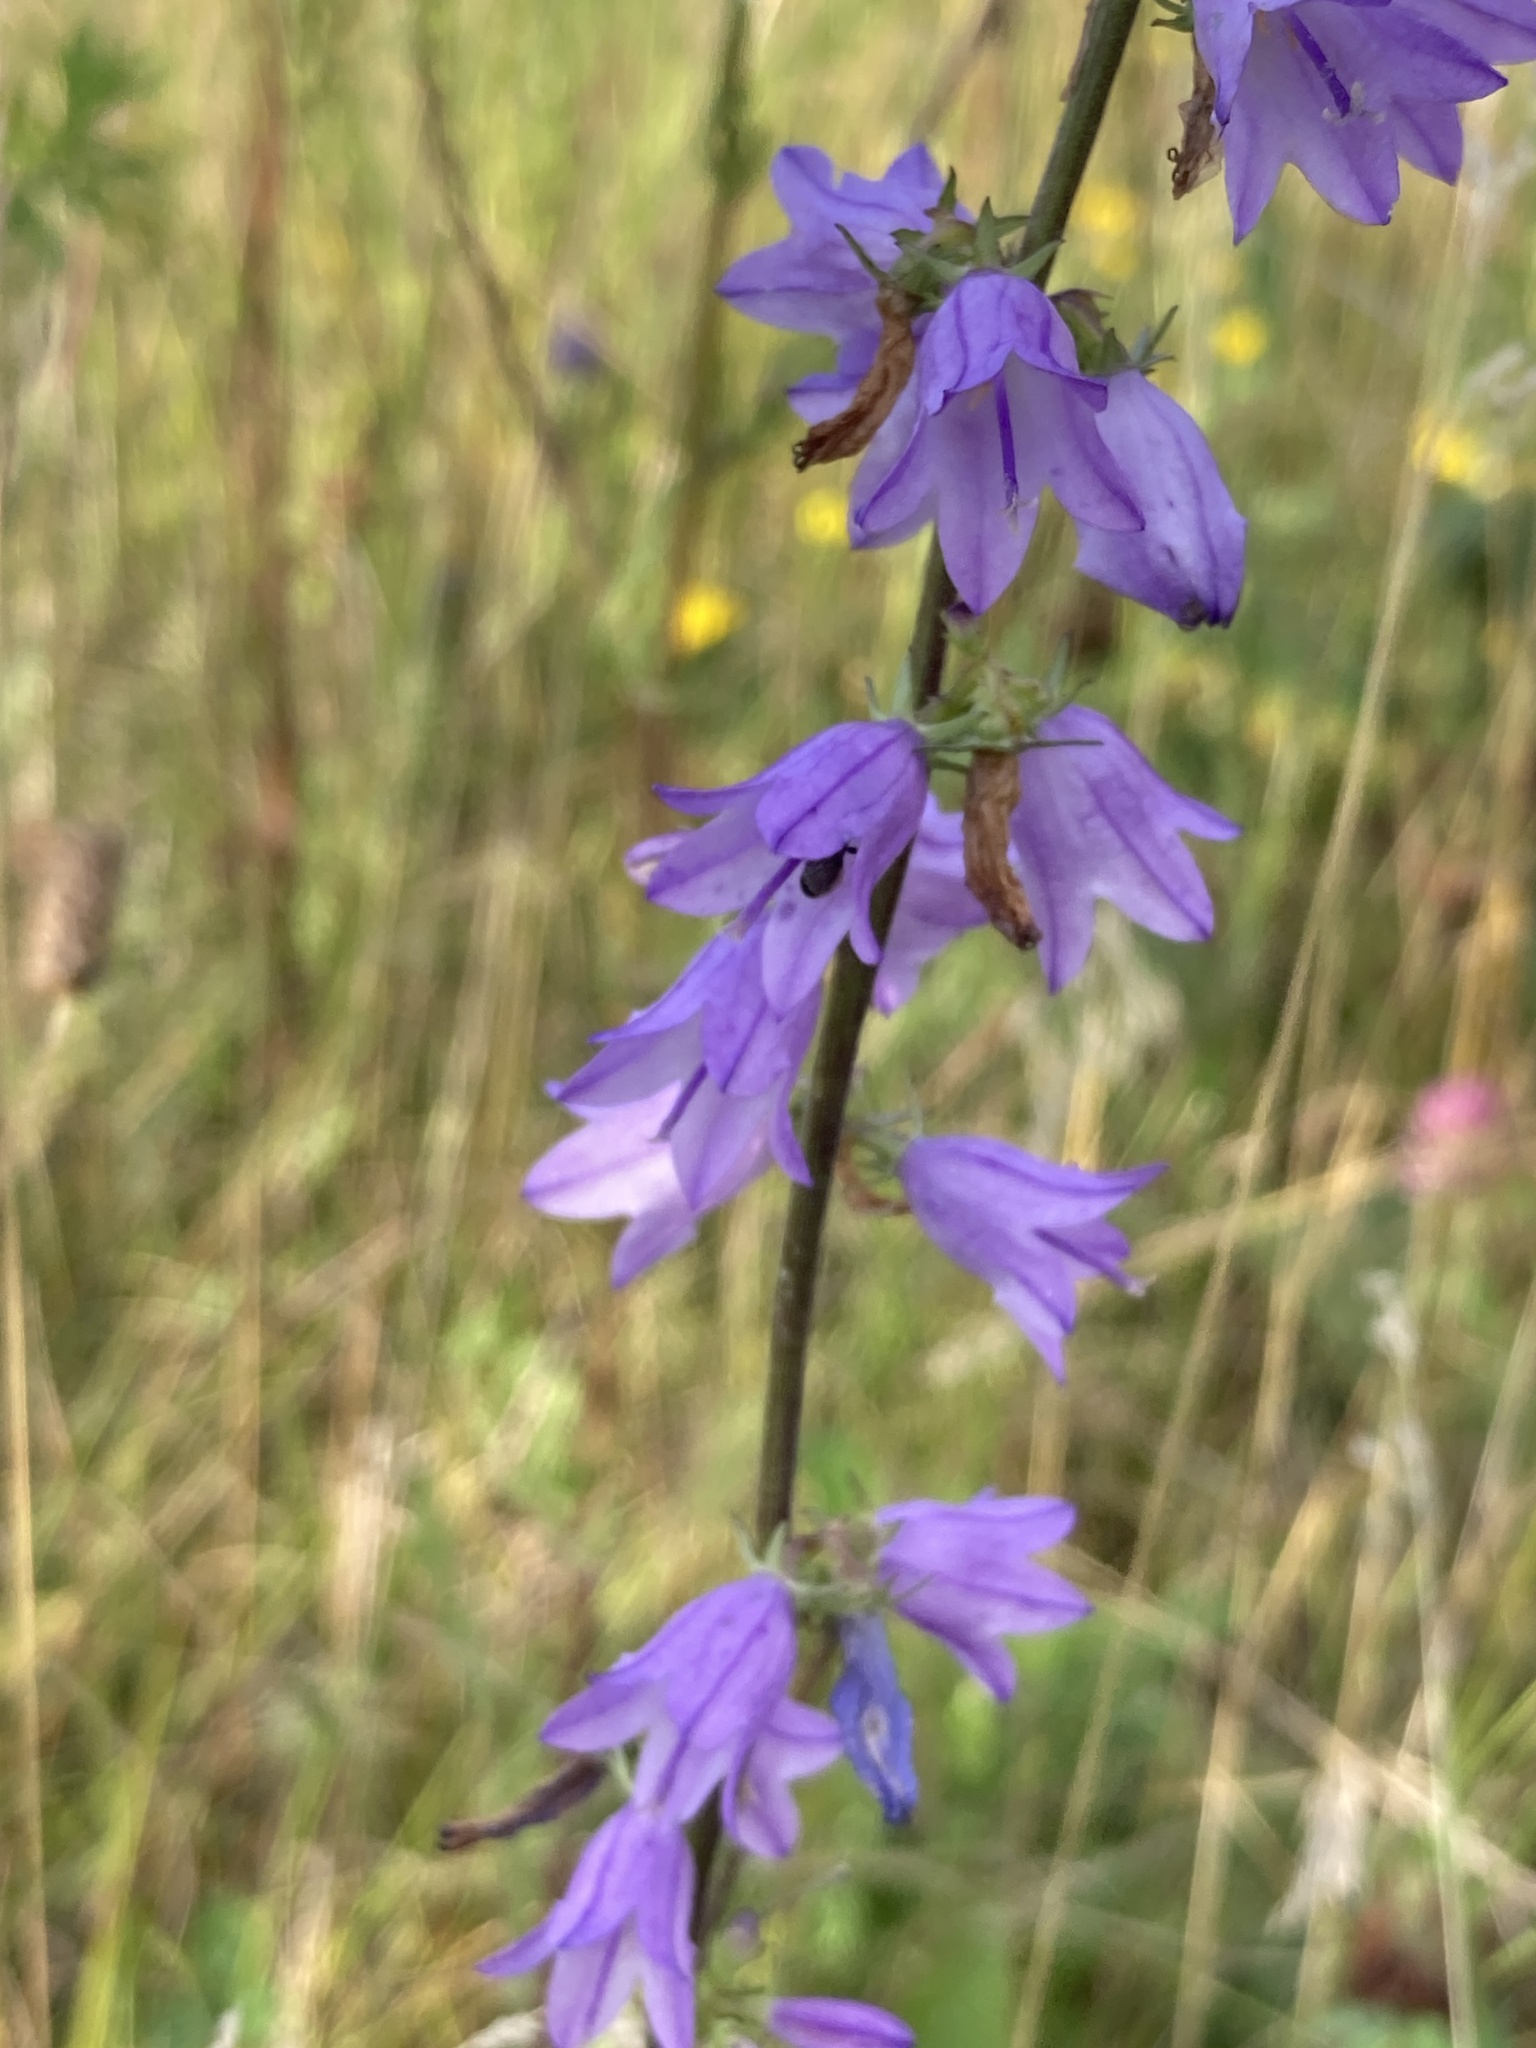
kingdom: Plantae
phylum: Tracheophyta
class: Magnoliopsida
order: Asterales
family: Campanulaceae
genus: Campanula
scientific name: Campanula bononiensis
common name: Pale bellflower
